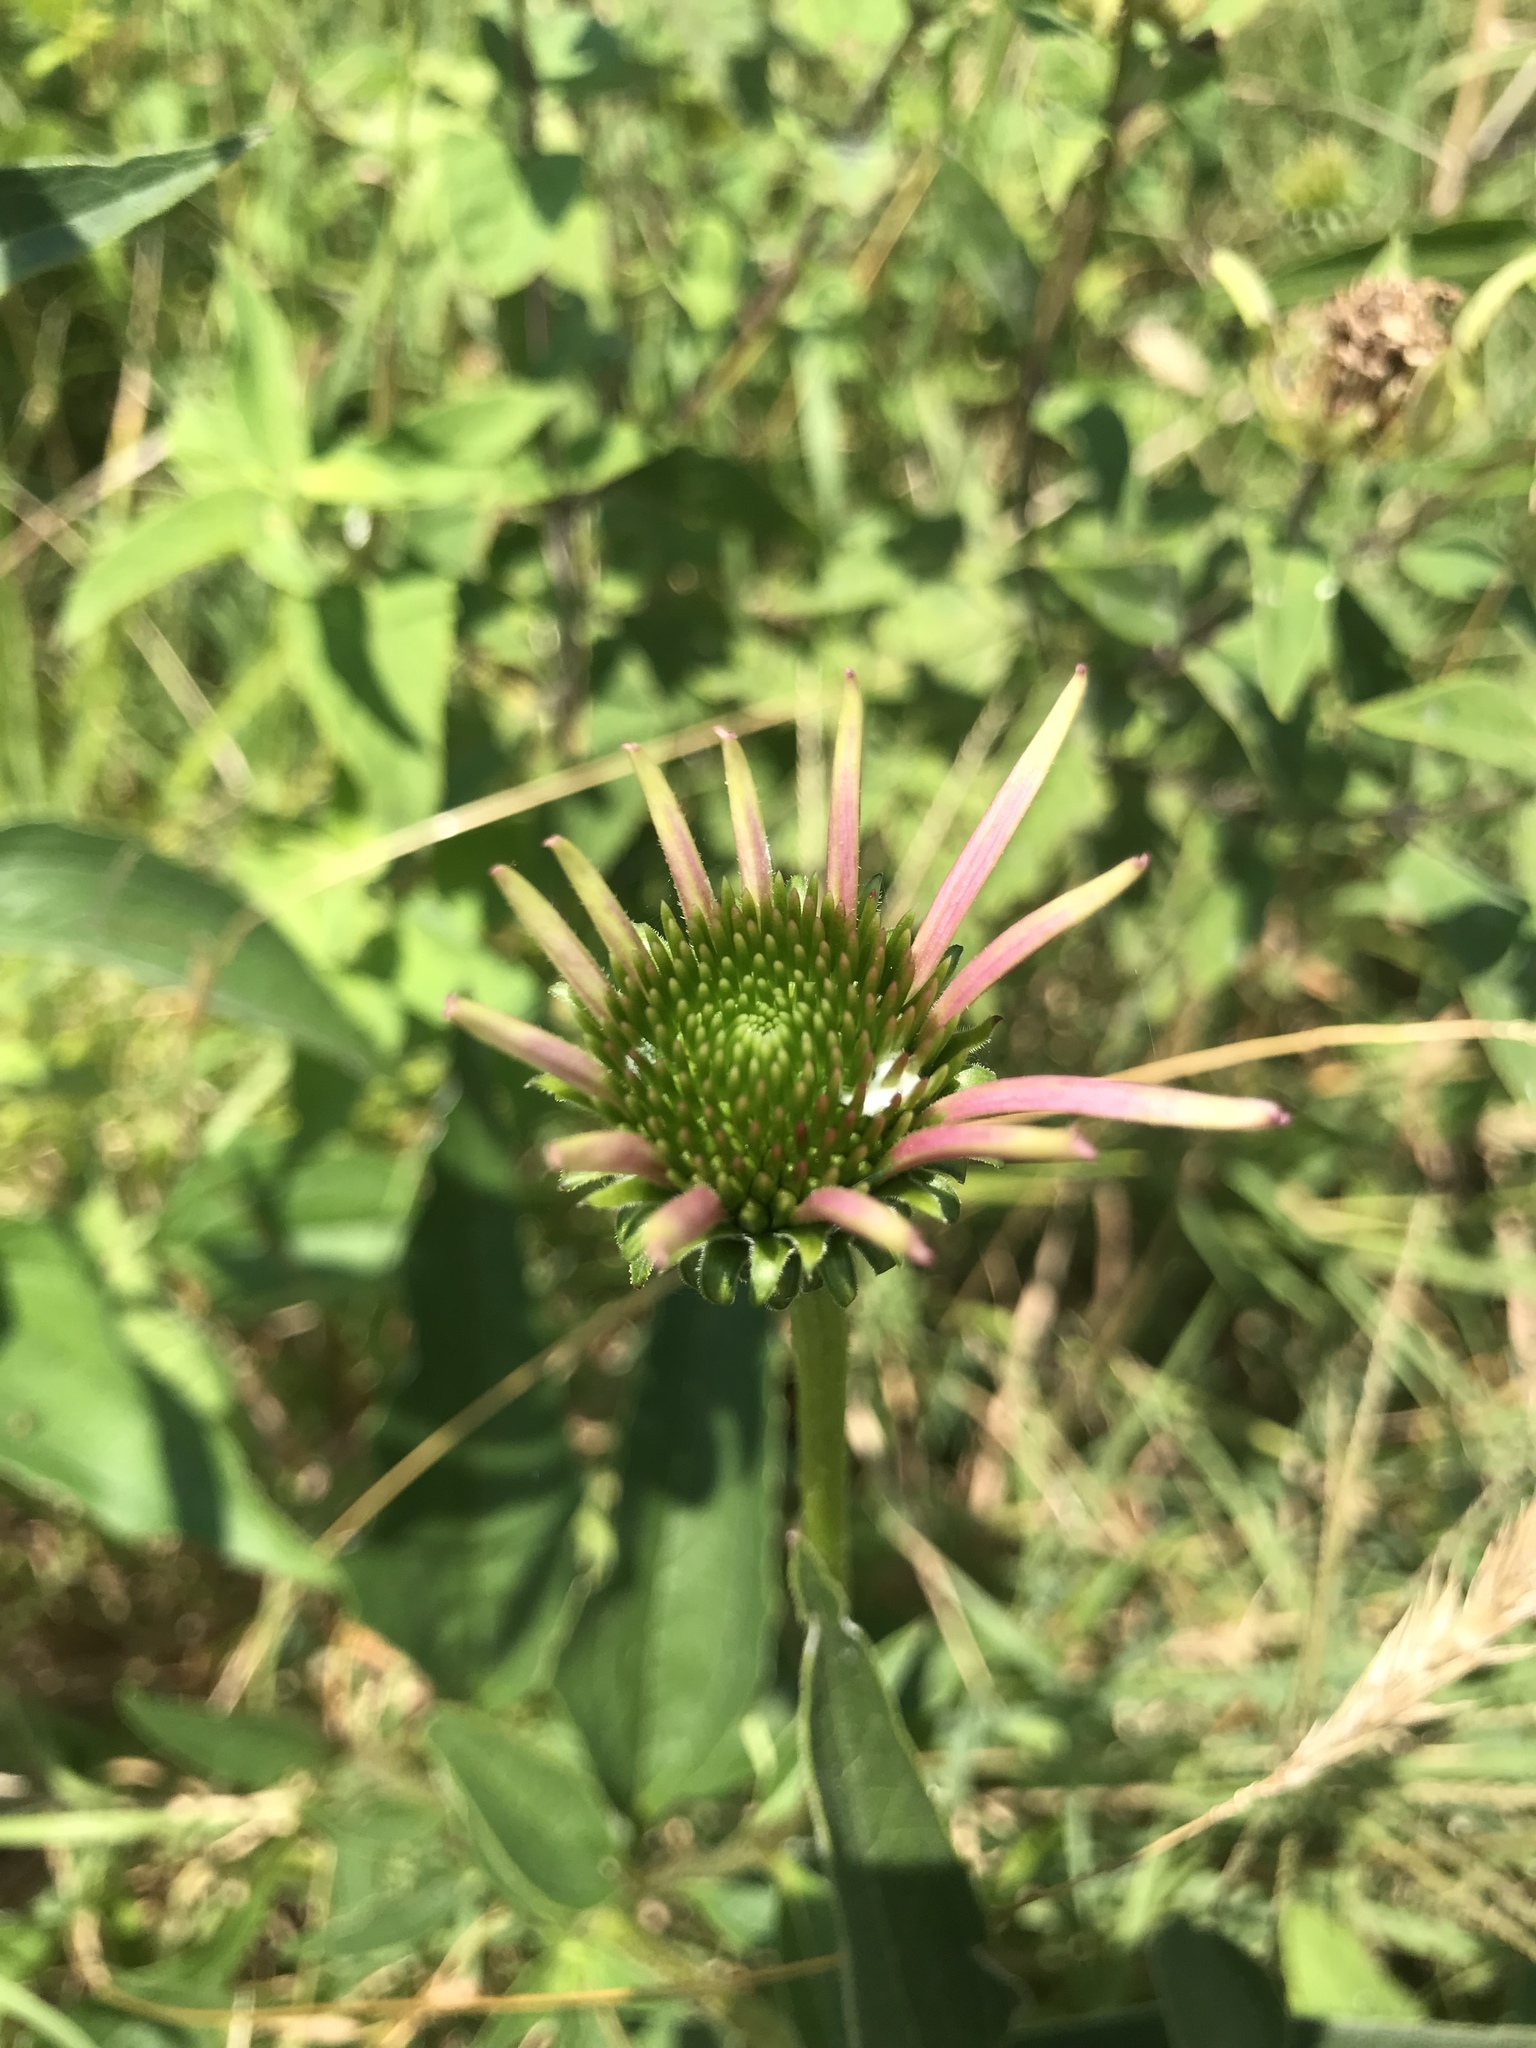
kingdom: Plantae
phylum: Tracheophyta
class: Magnoliopsida
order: Asterales
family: Asteraceae
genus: Echinacea
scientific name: Echinacea purpurea
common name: Broad-leaved purple coneflower
